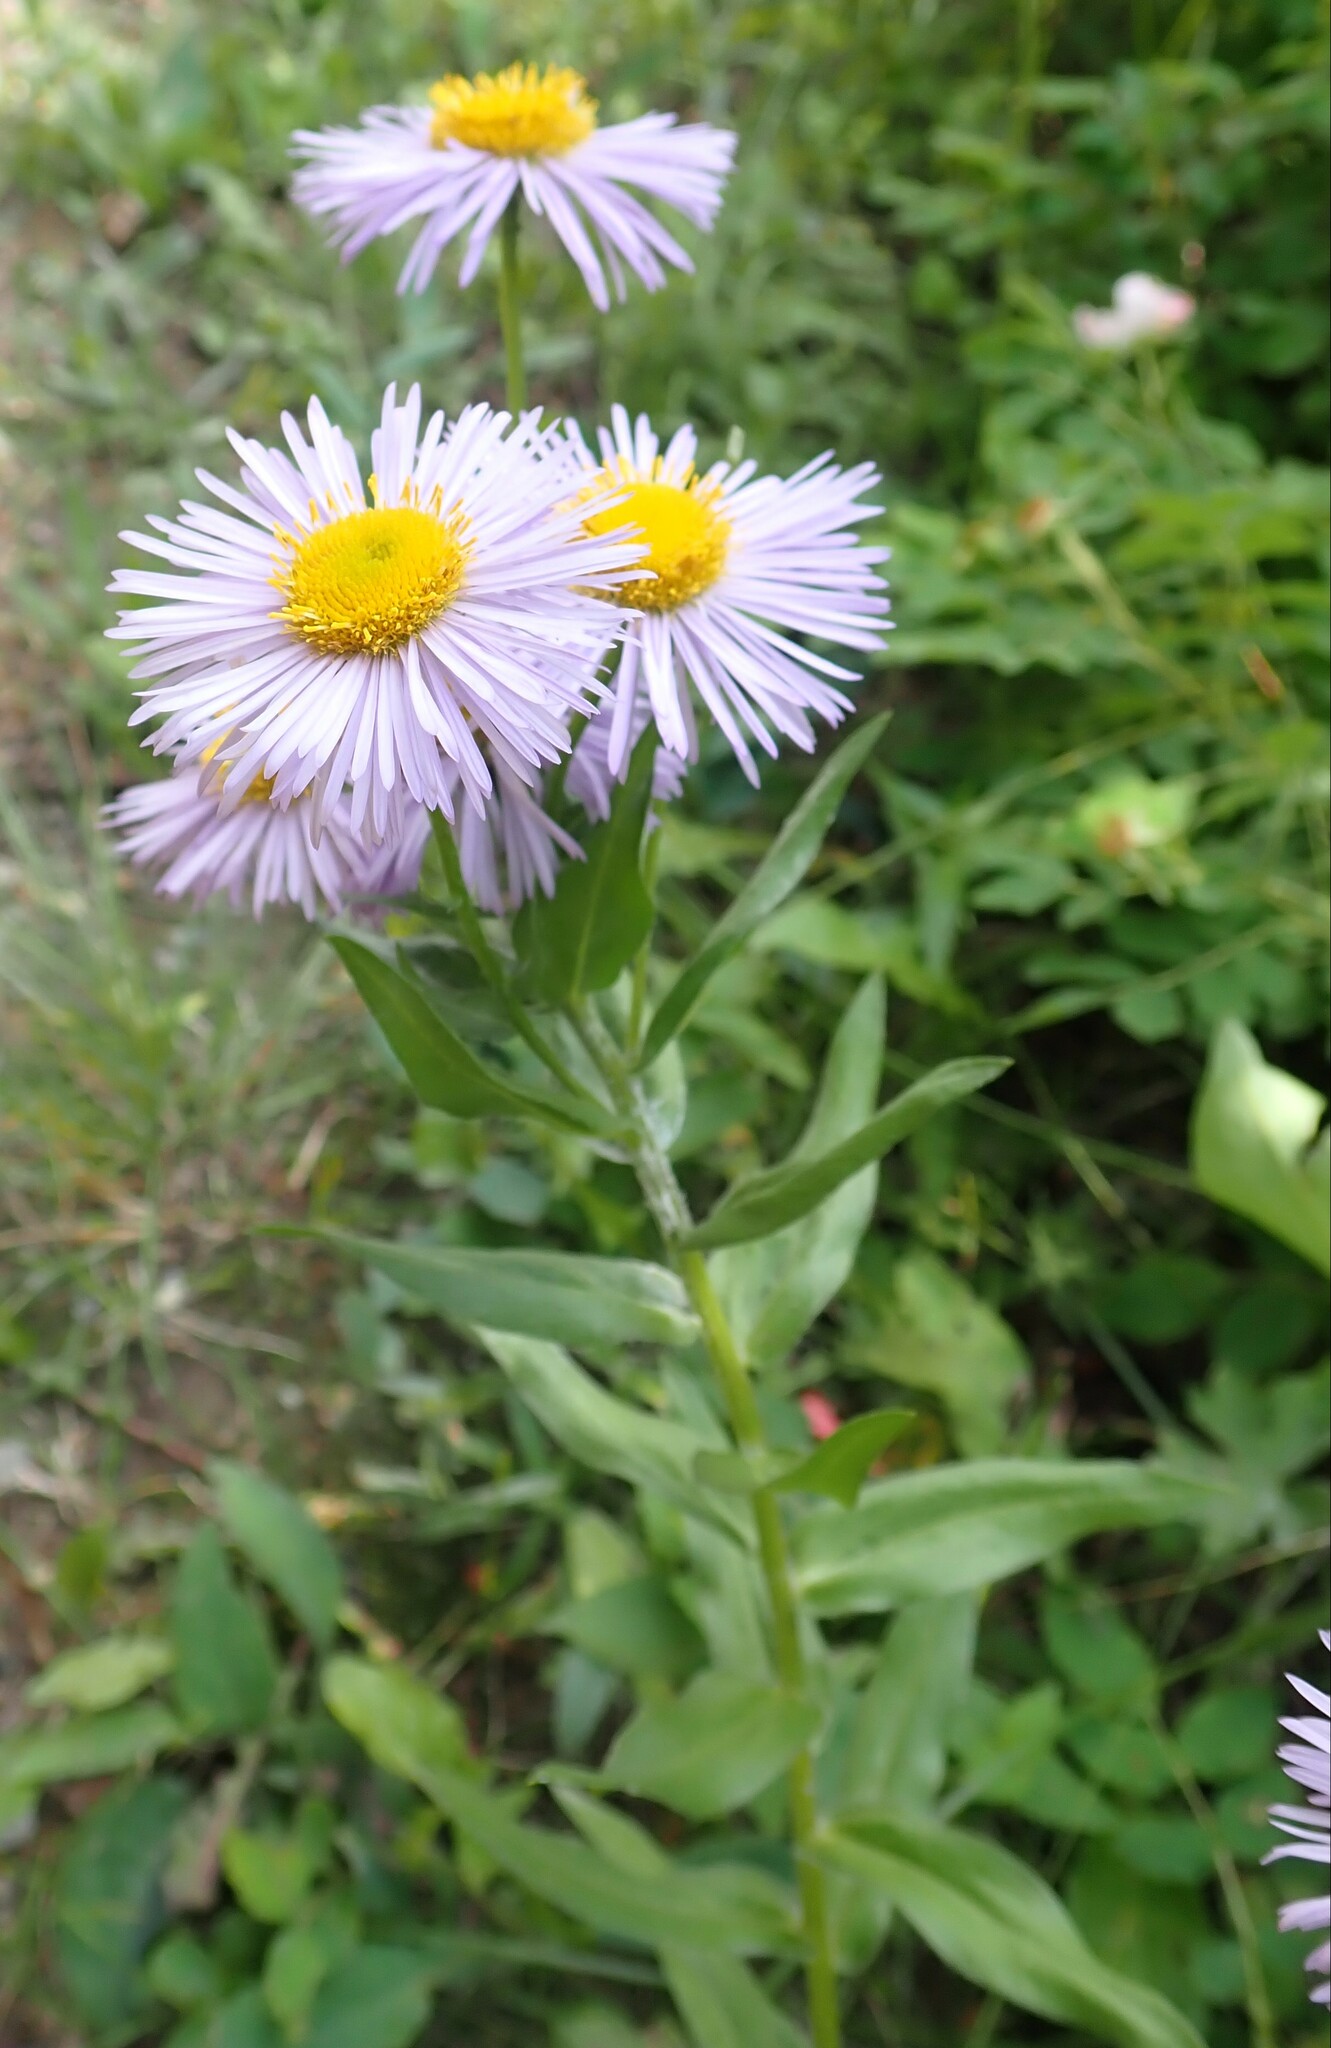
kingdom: Plantae
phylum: Tracheophyta
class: Magnoliopsida
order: Asterales
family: Asteraceae
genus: Erigeron
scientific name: Erigeron speciosus
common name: Aspen fleabane
